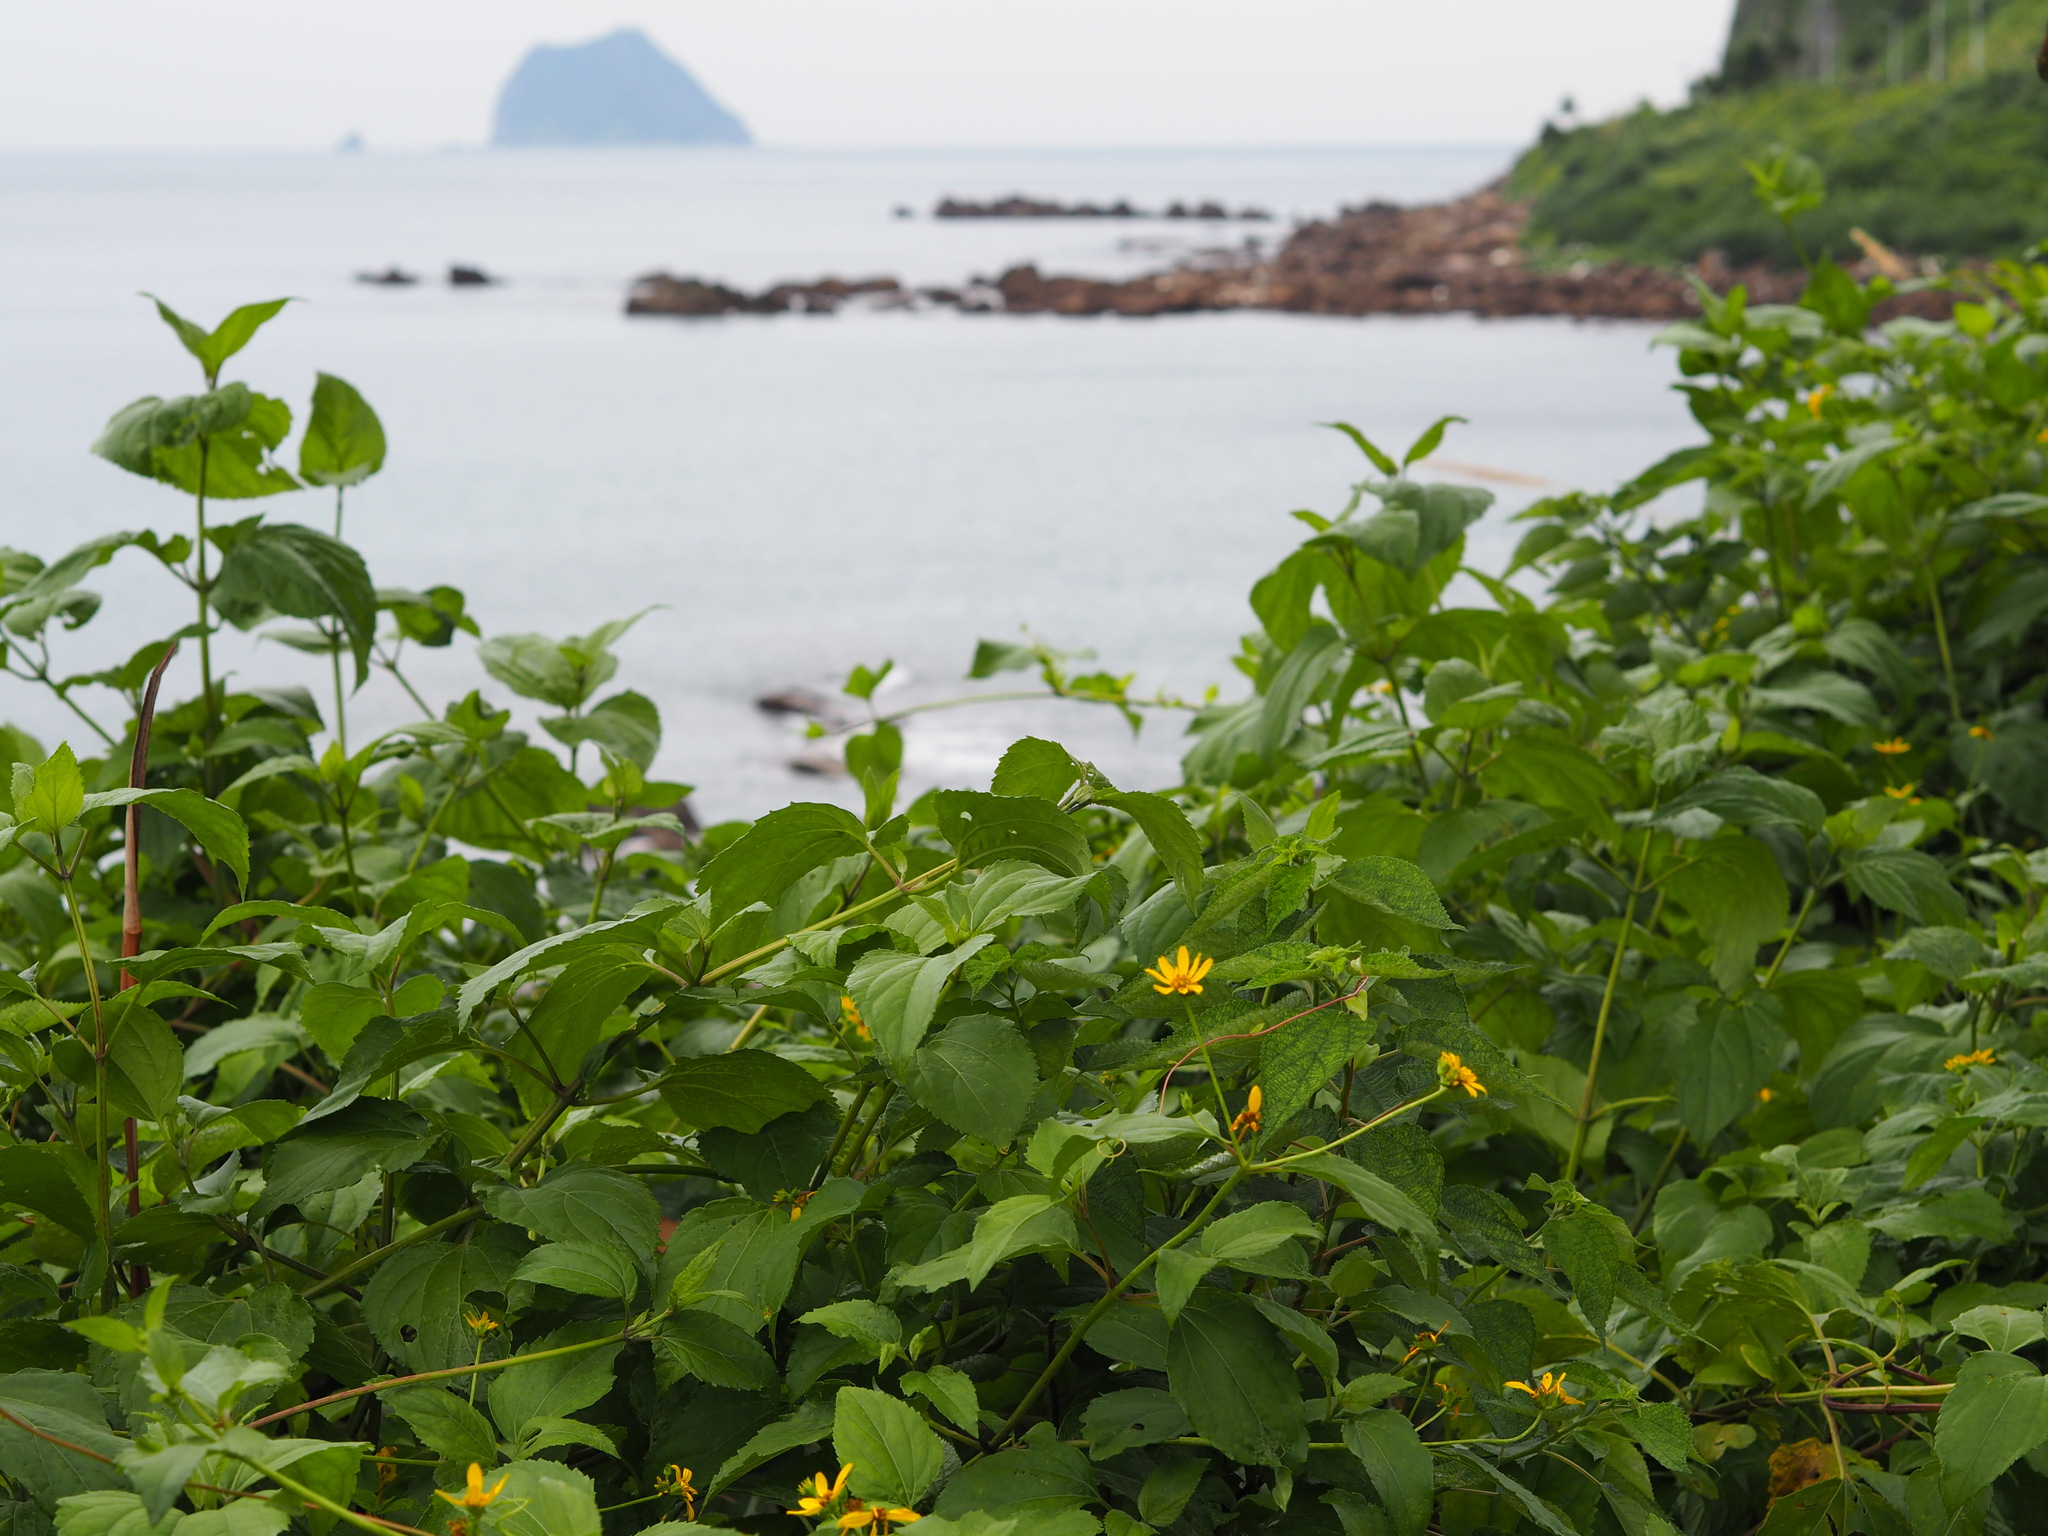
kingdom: Plantae
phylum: Tracheophyta
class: Magnoliopsida
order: Asterales
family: Asteraceae
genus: Wollastonia
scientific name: Wollastonia biflora
